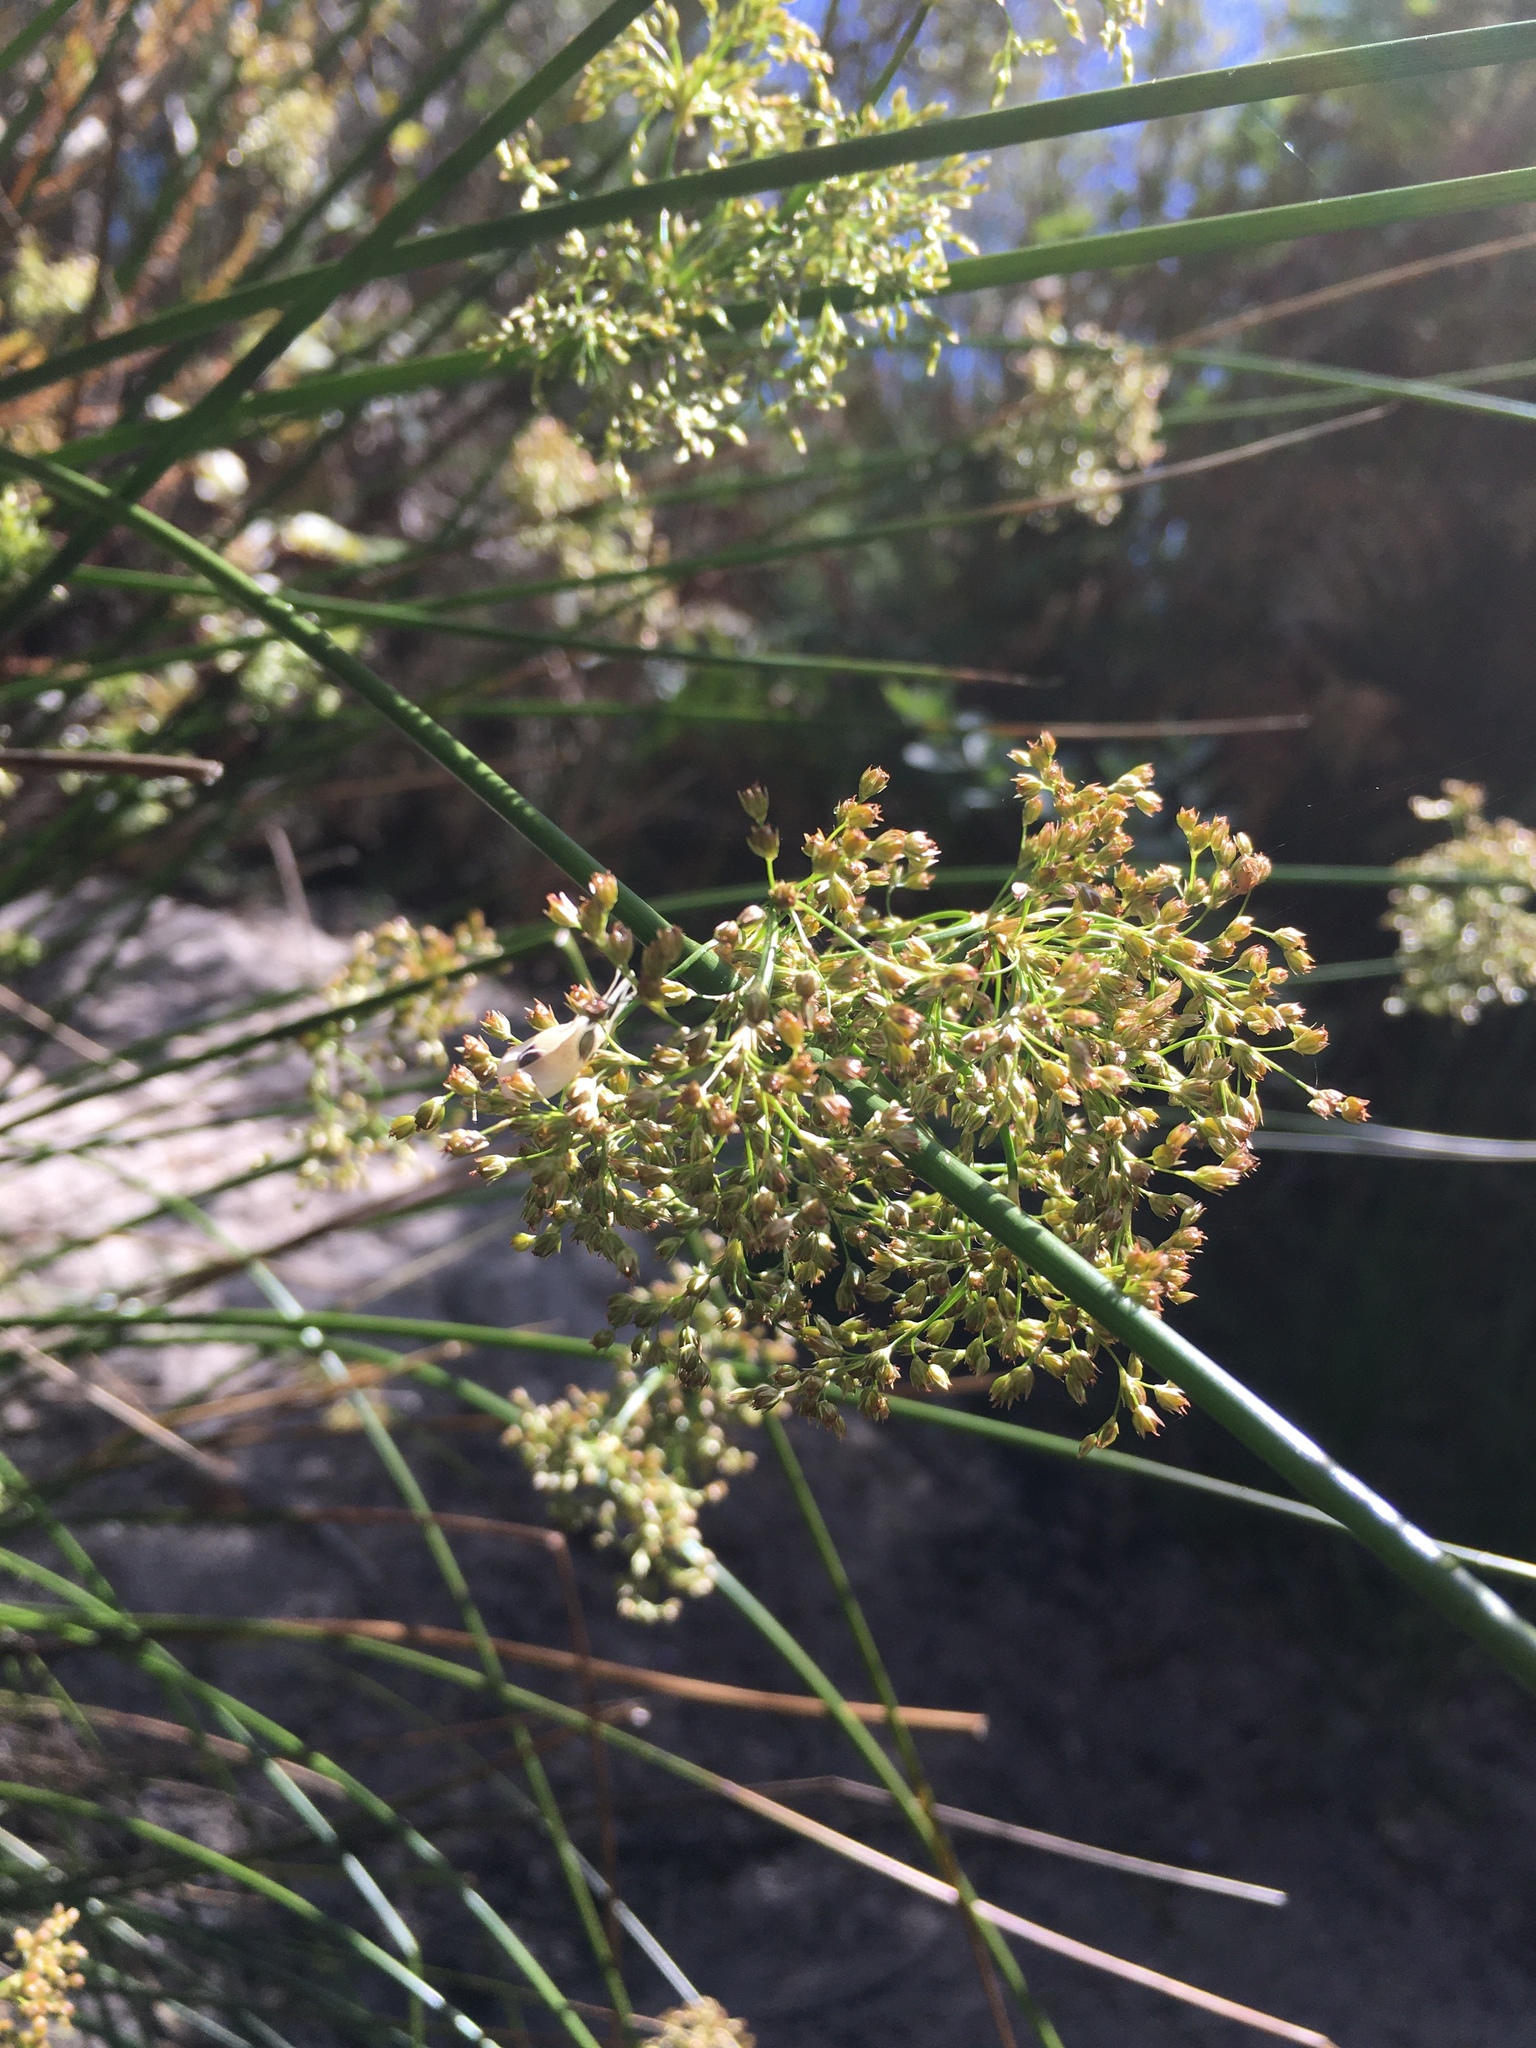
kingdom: Plantae
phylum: Tracheophyta
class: Liliopsida
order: Poales
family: Juncaceae
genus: Juncus
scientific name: Juncus effusus
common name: Soft rush
